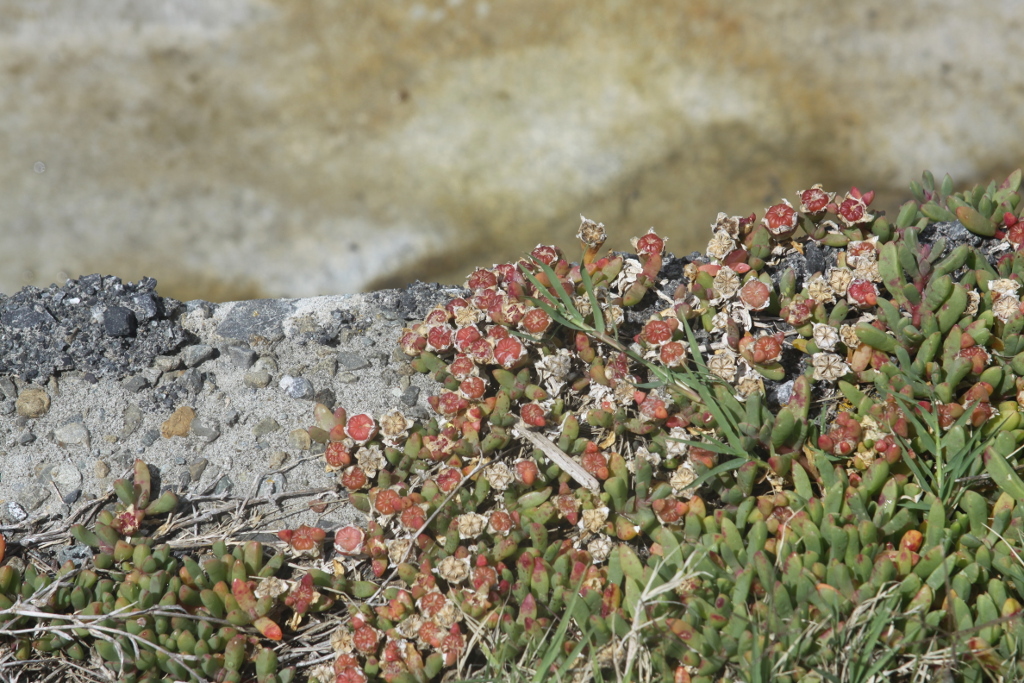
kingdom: Plantae
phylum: Tracheophyta
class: Magnoliopsida
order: Caryophyllales
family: Aizoaceae
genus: Disphyma
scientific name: Disphyma australe
